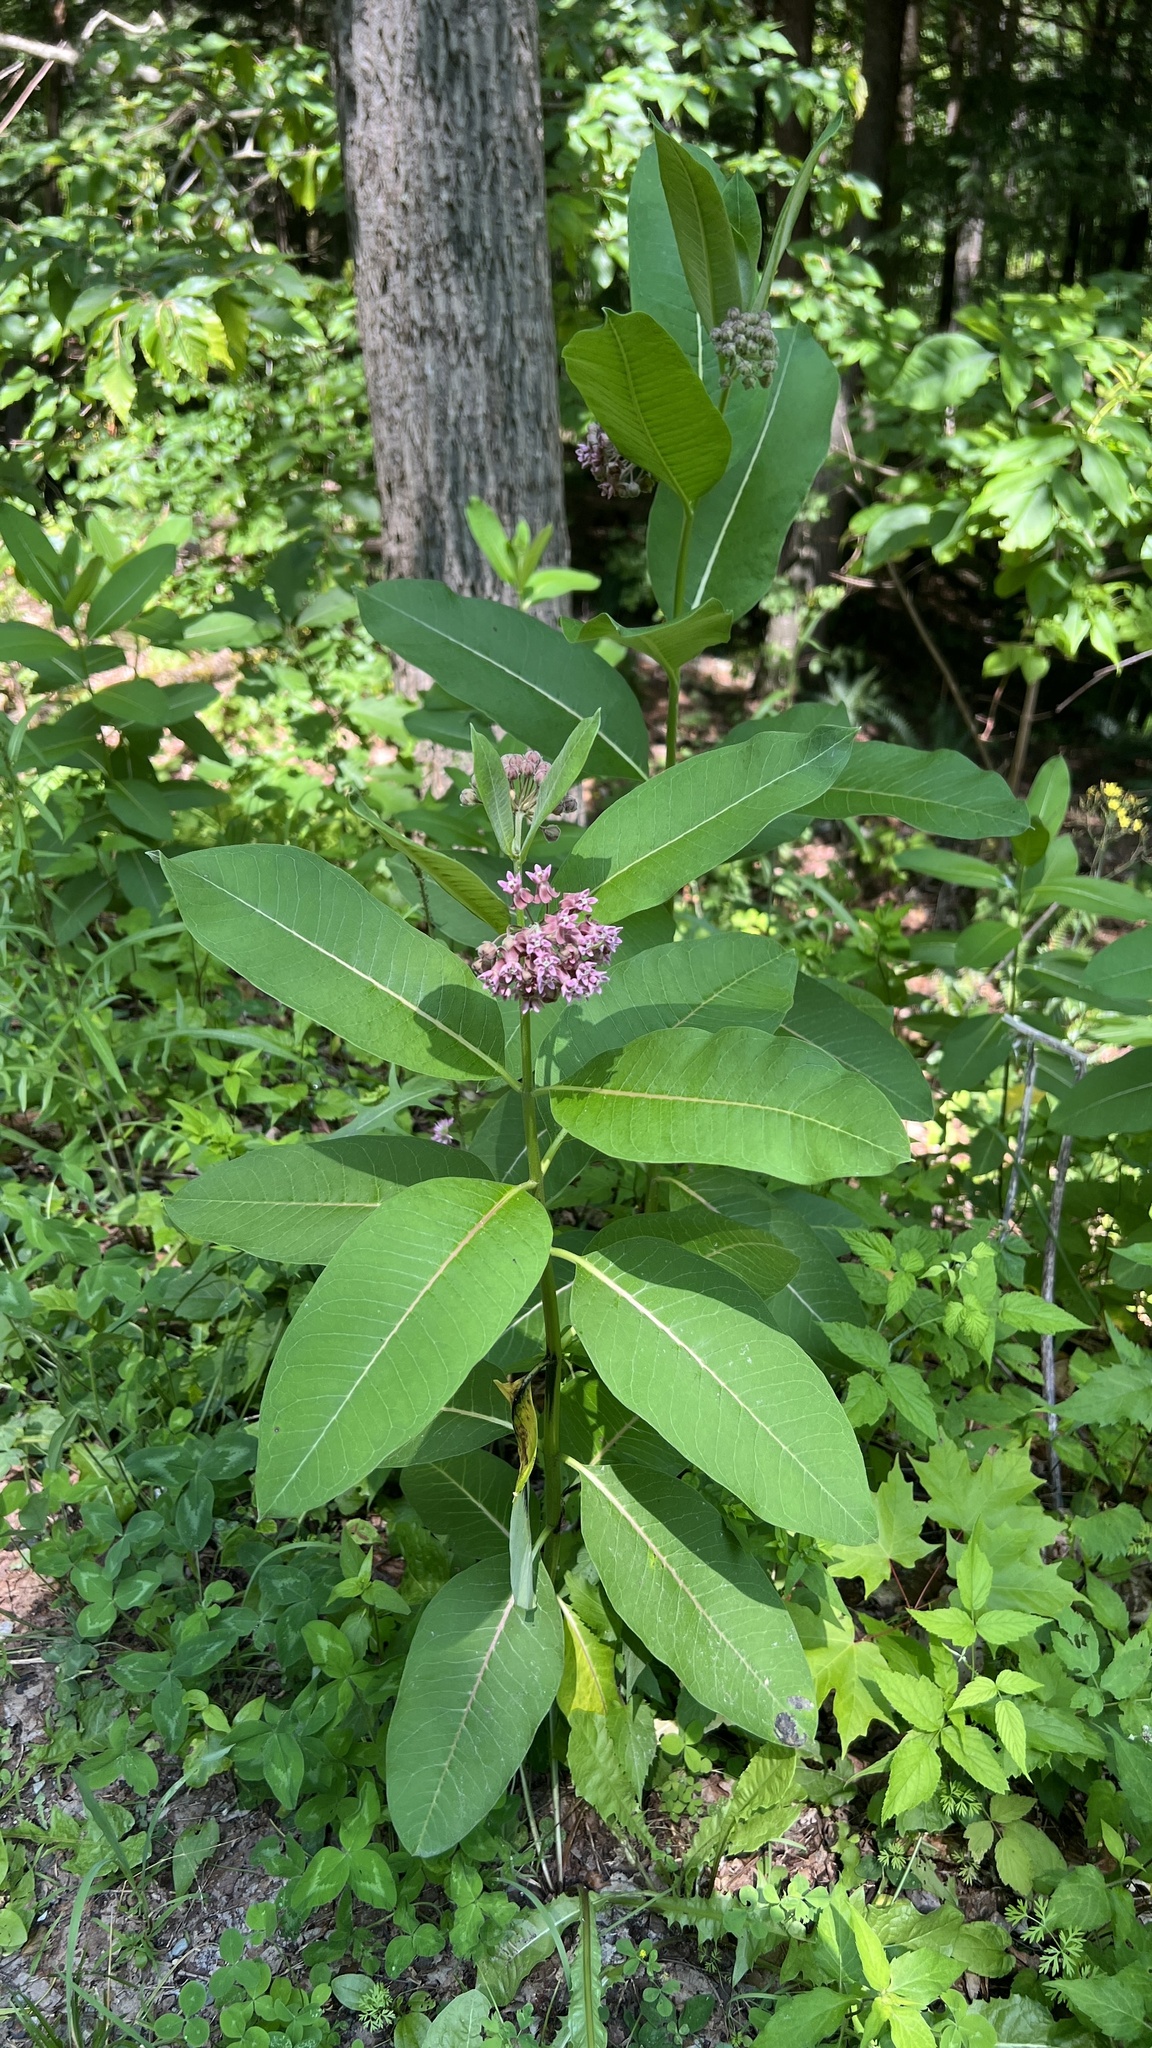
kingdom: Plantae
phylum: Tracheophyta
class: Magnoliopsida
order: Gentianales
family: Apocynaceae
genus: Asclepias
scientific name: Asclepias syriaca
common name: Common milkweed
